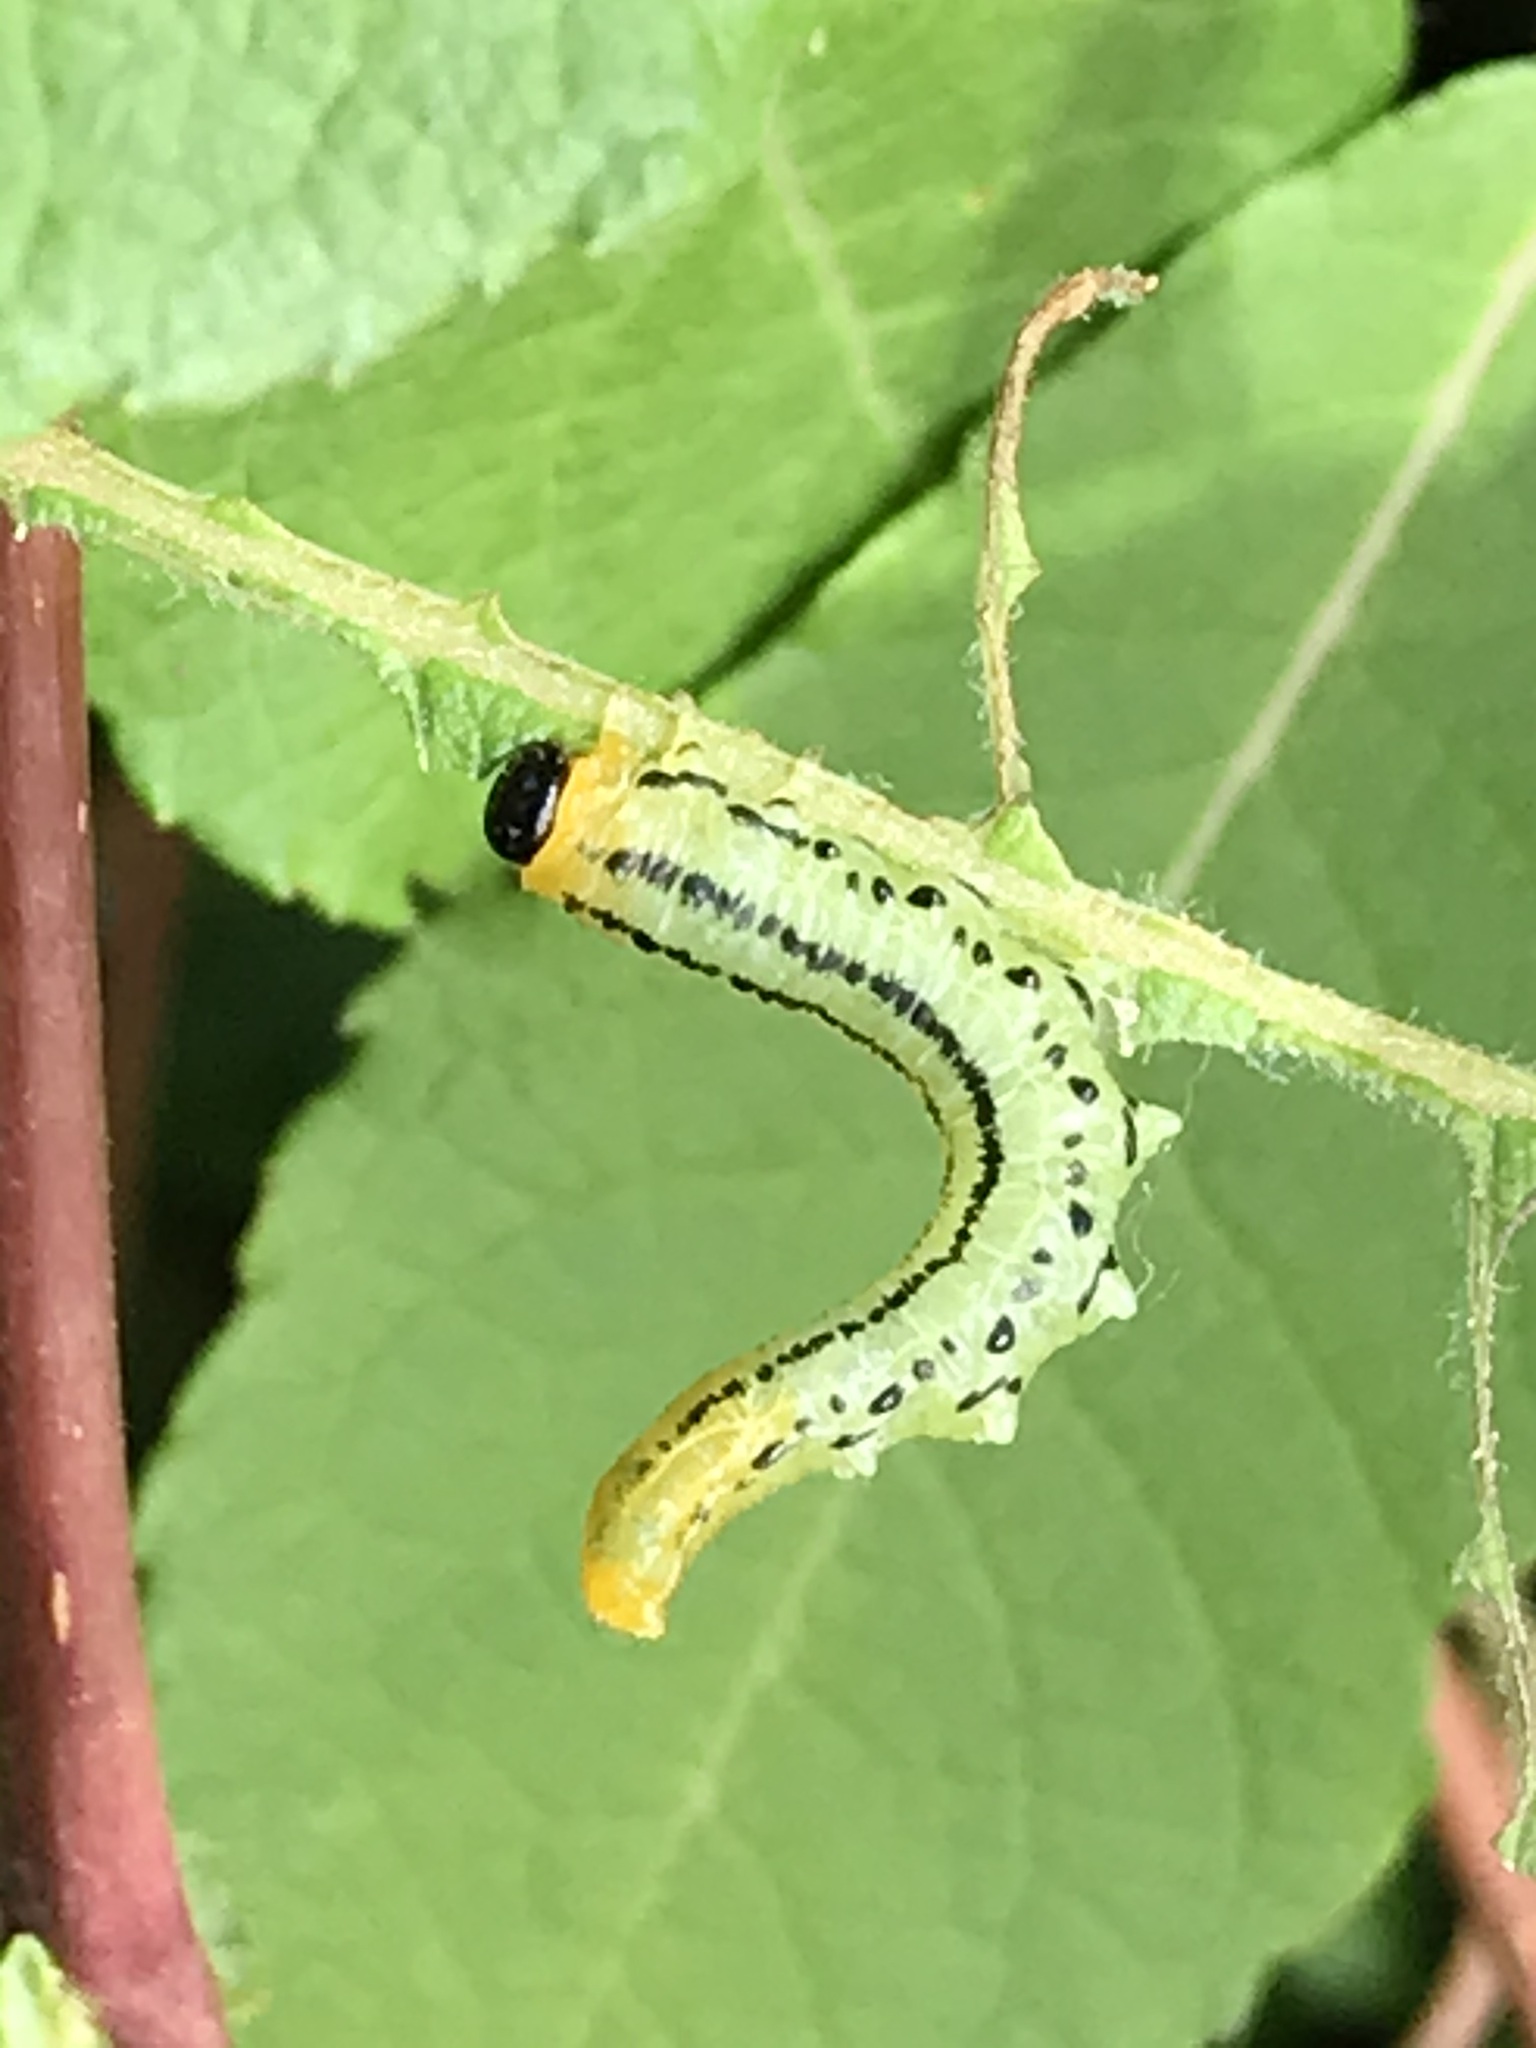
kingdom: Animalia
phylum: Arthropoda
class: Insecta
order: Hymenoptera
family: Tenthredinidae
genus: Nematus
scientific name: Nematus pavidus
